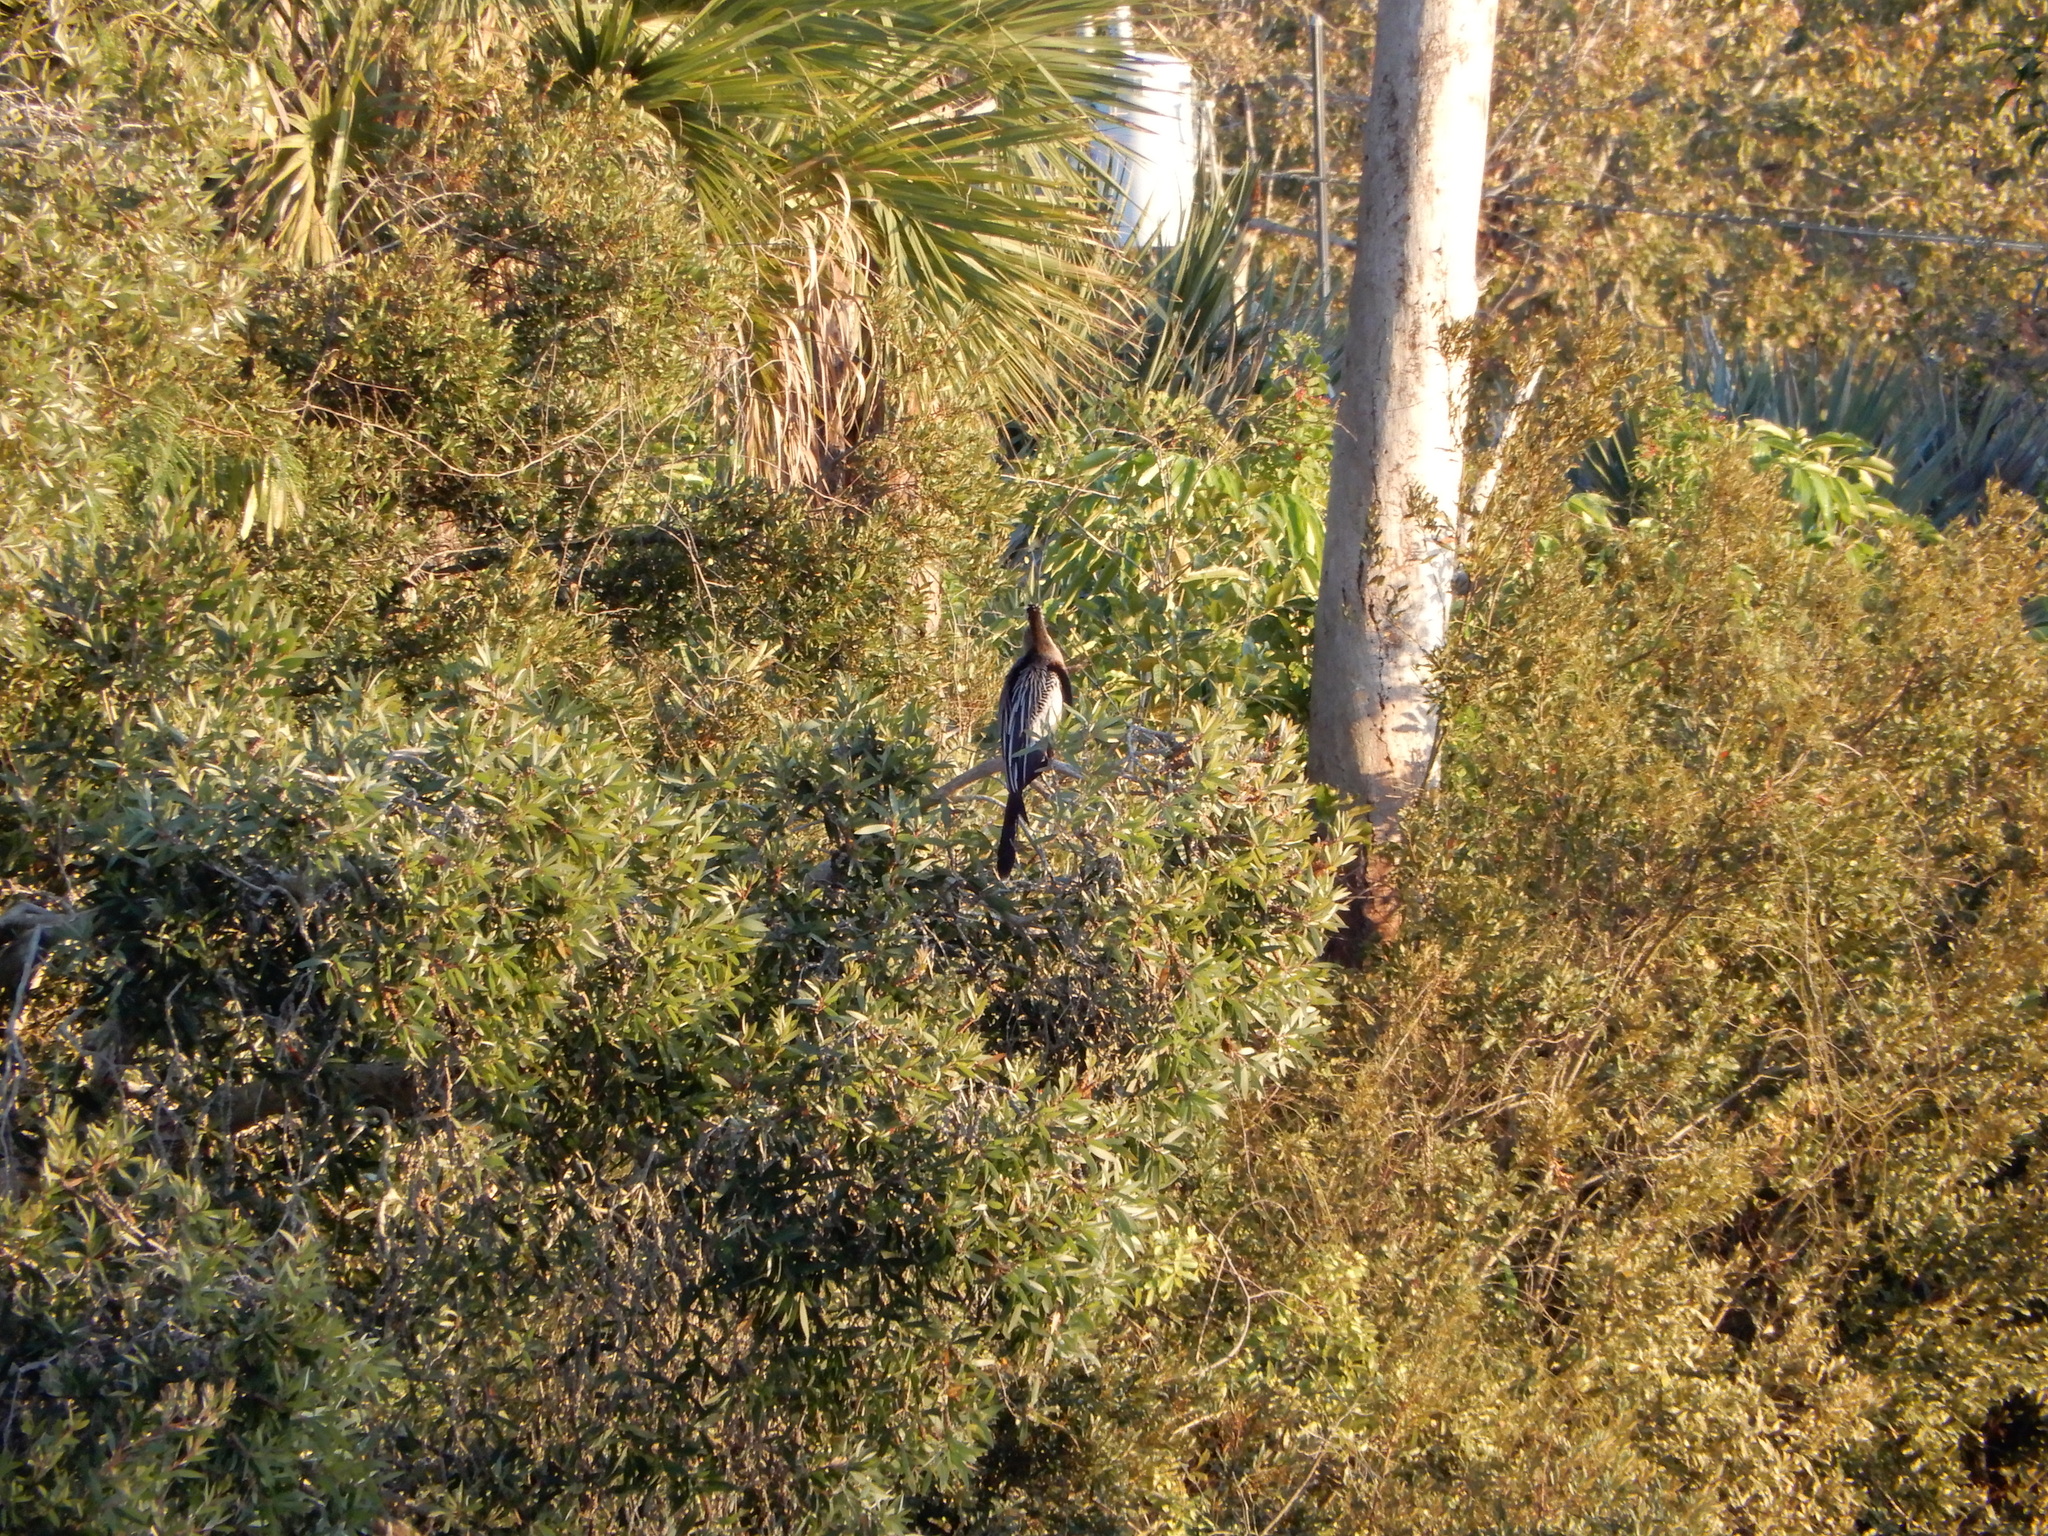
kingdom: Animalia
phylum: Chordata
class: Aves
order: Suliformes
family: Anhingidae
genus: Anhinga
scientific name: Anhinga anhinga
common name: Anhinga
